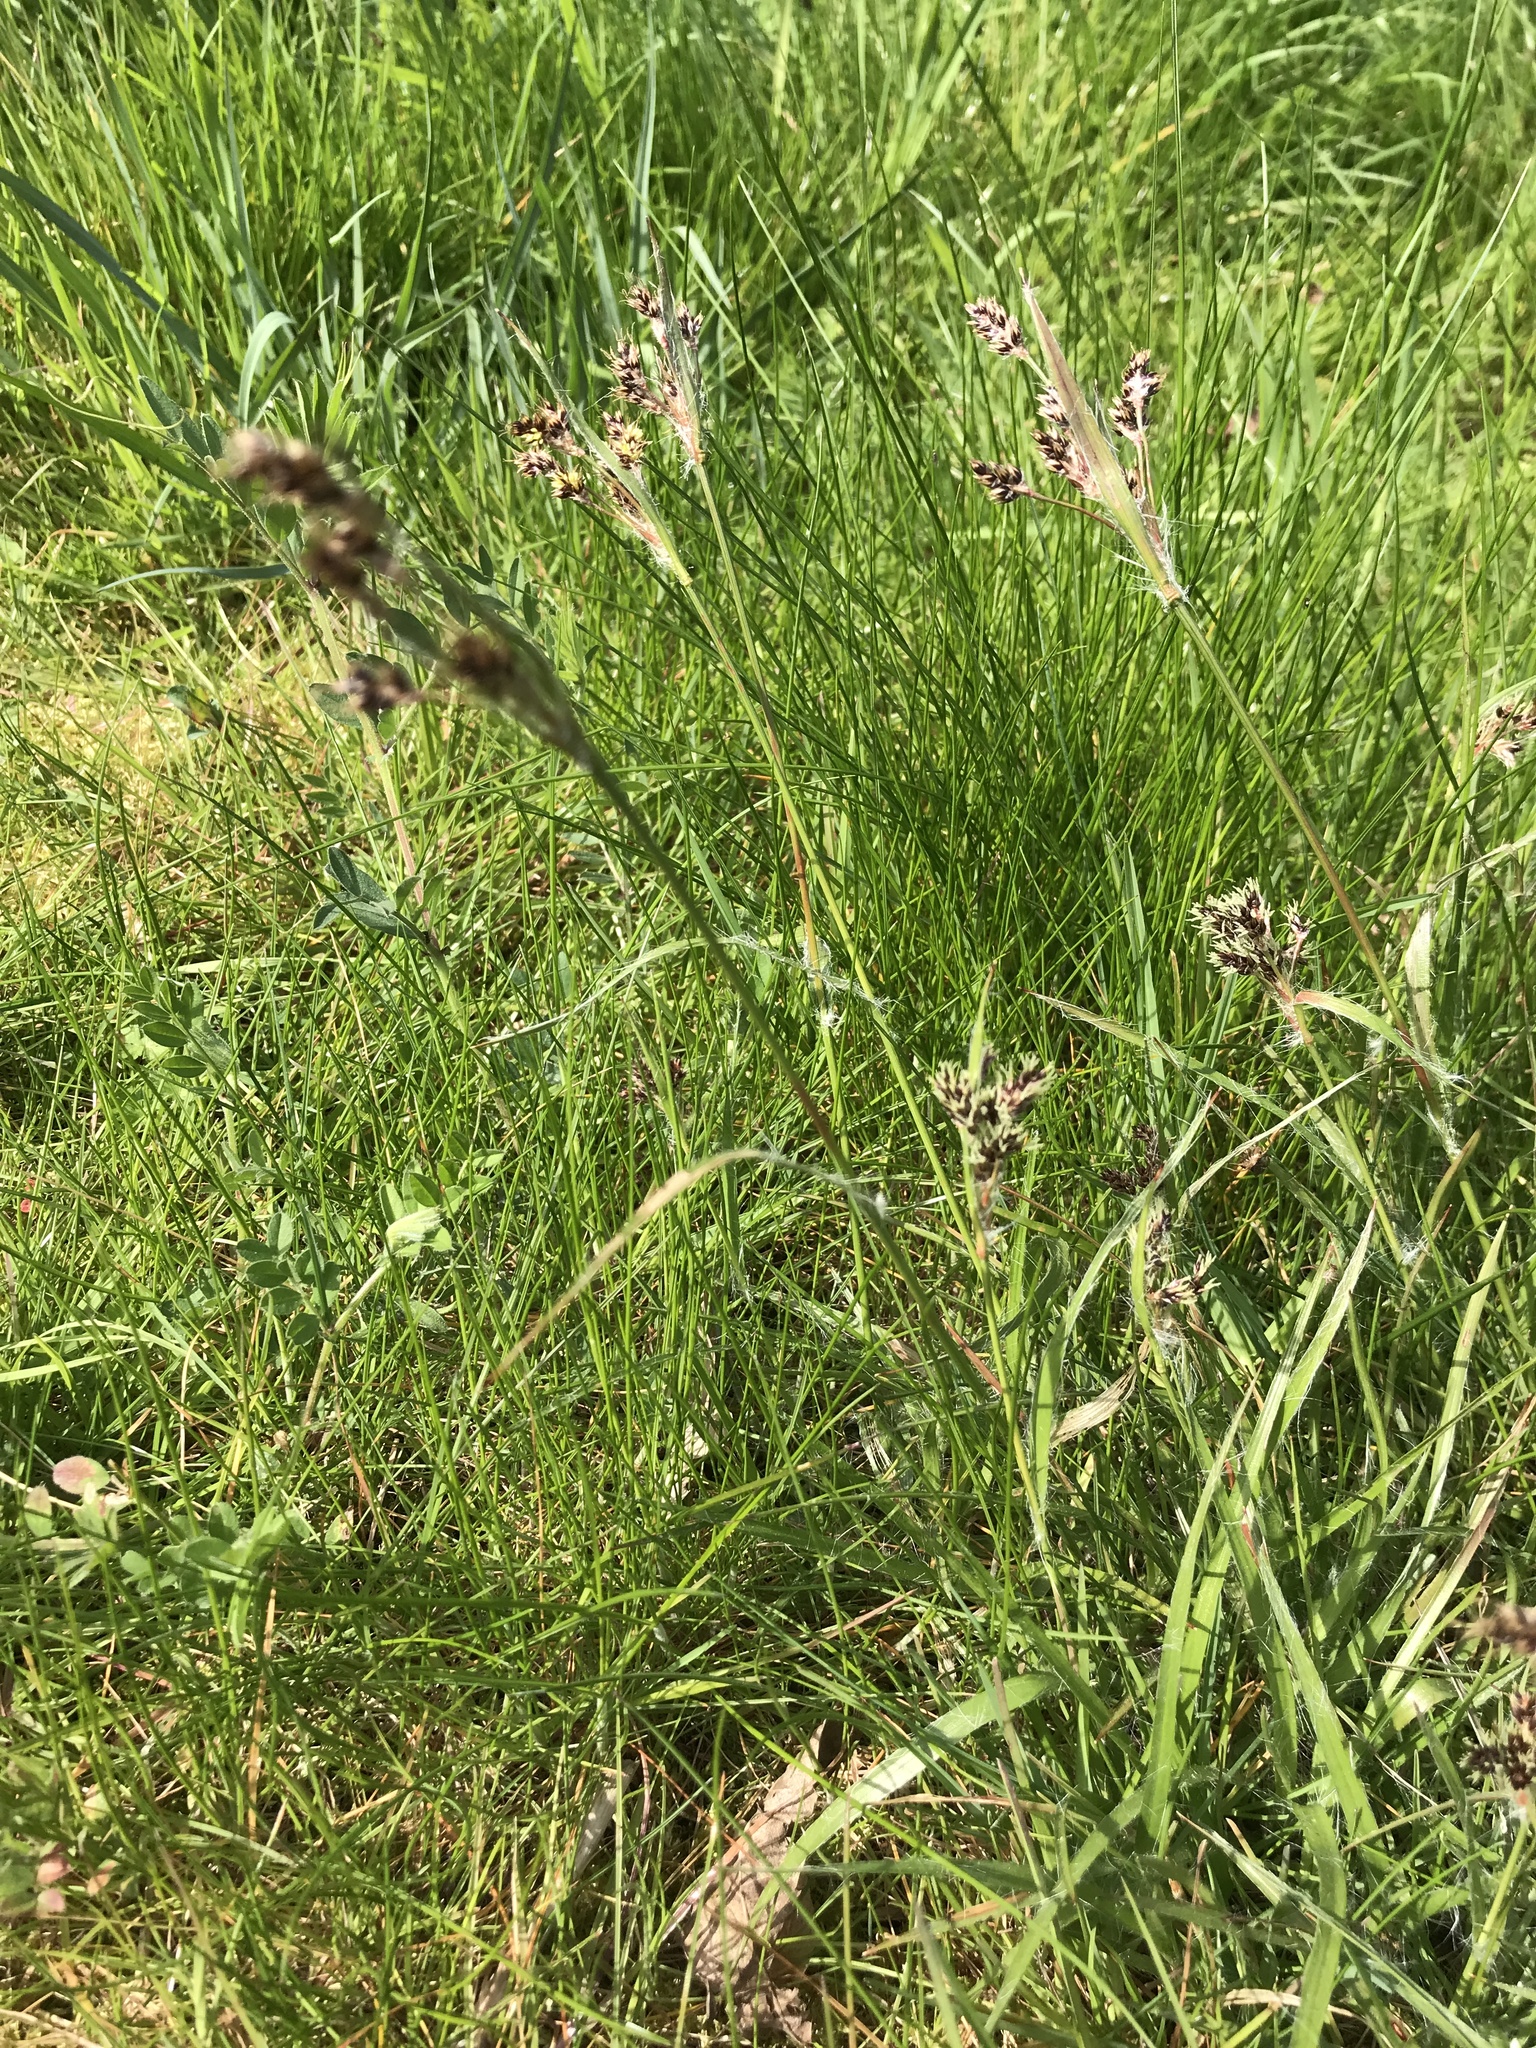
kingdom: Plantae
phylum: Tracheophyta
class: Liliopsida
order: Poales
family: Juncaceae
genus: Luzula
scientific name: Luzula campestris
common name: Field wood-rush
